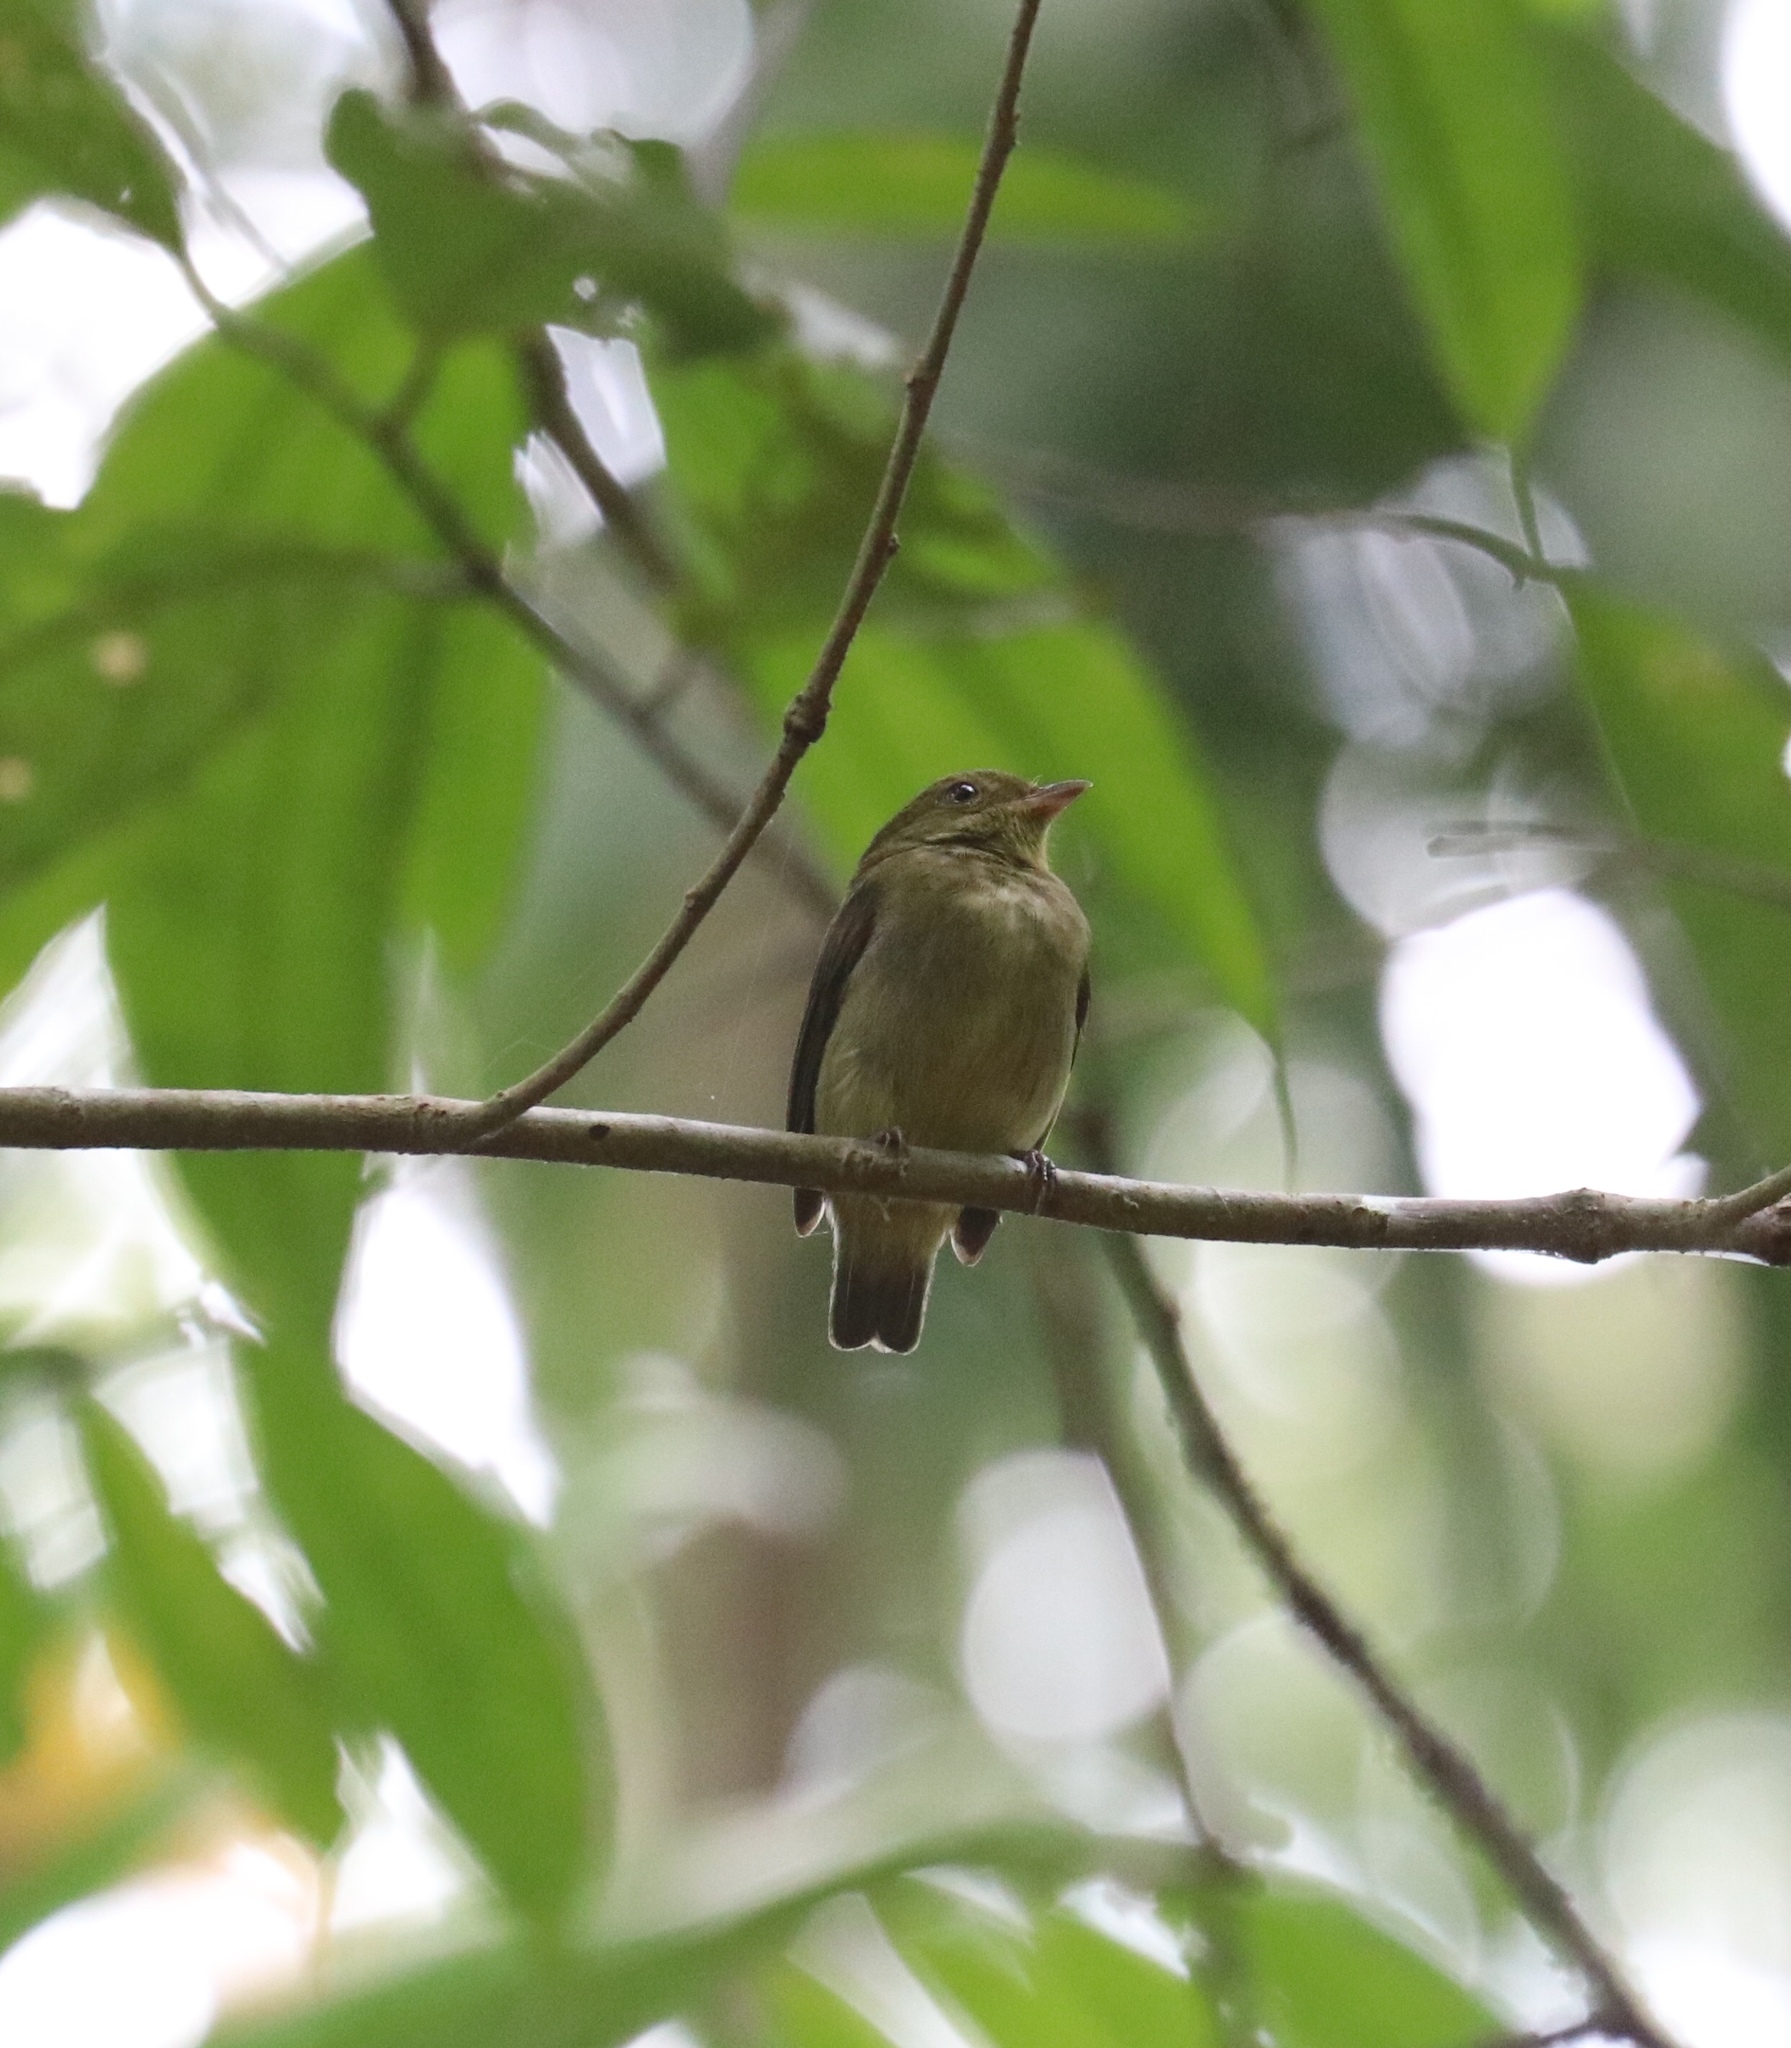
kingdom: Animalia
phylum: Chordata
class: Aves
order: Passeriformes
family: Pipridae
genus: Pipra
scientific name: Pipra mentalis
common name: Red-capped manakin
